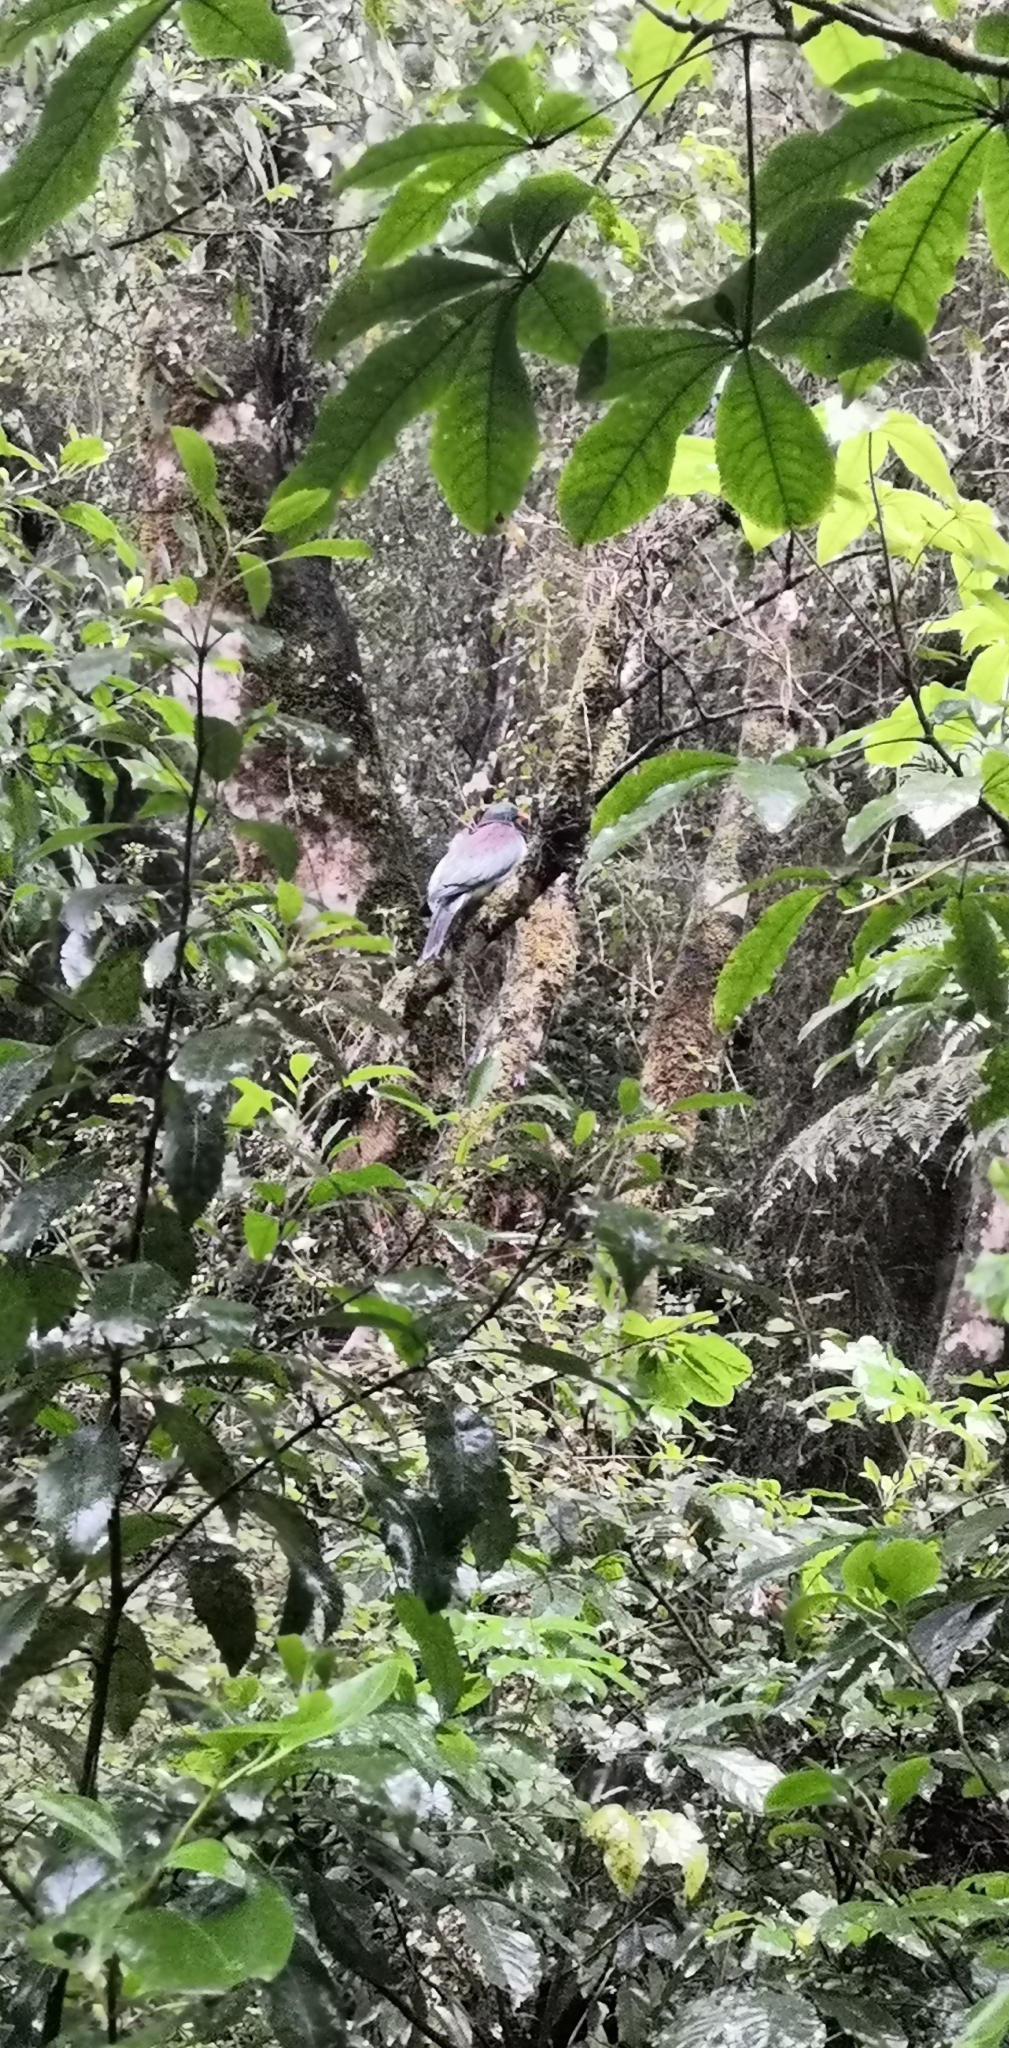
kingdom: Animalia
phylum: Chordata
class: Aves
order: Columbiformes
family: Columbidae
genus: Hemiphaga
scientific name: Hemiphaga novaeseelandiae
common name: New zealand pigeon
